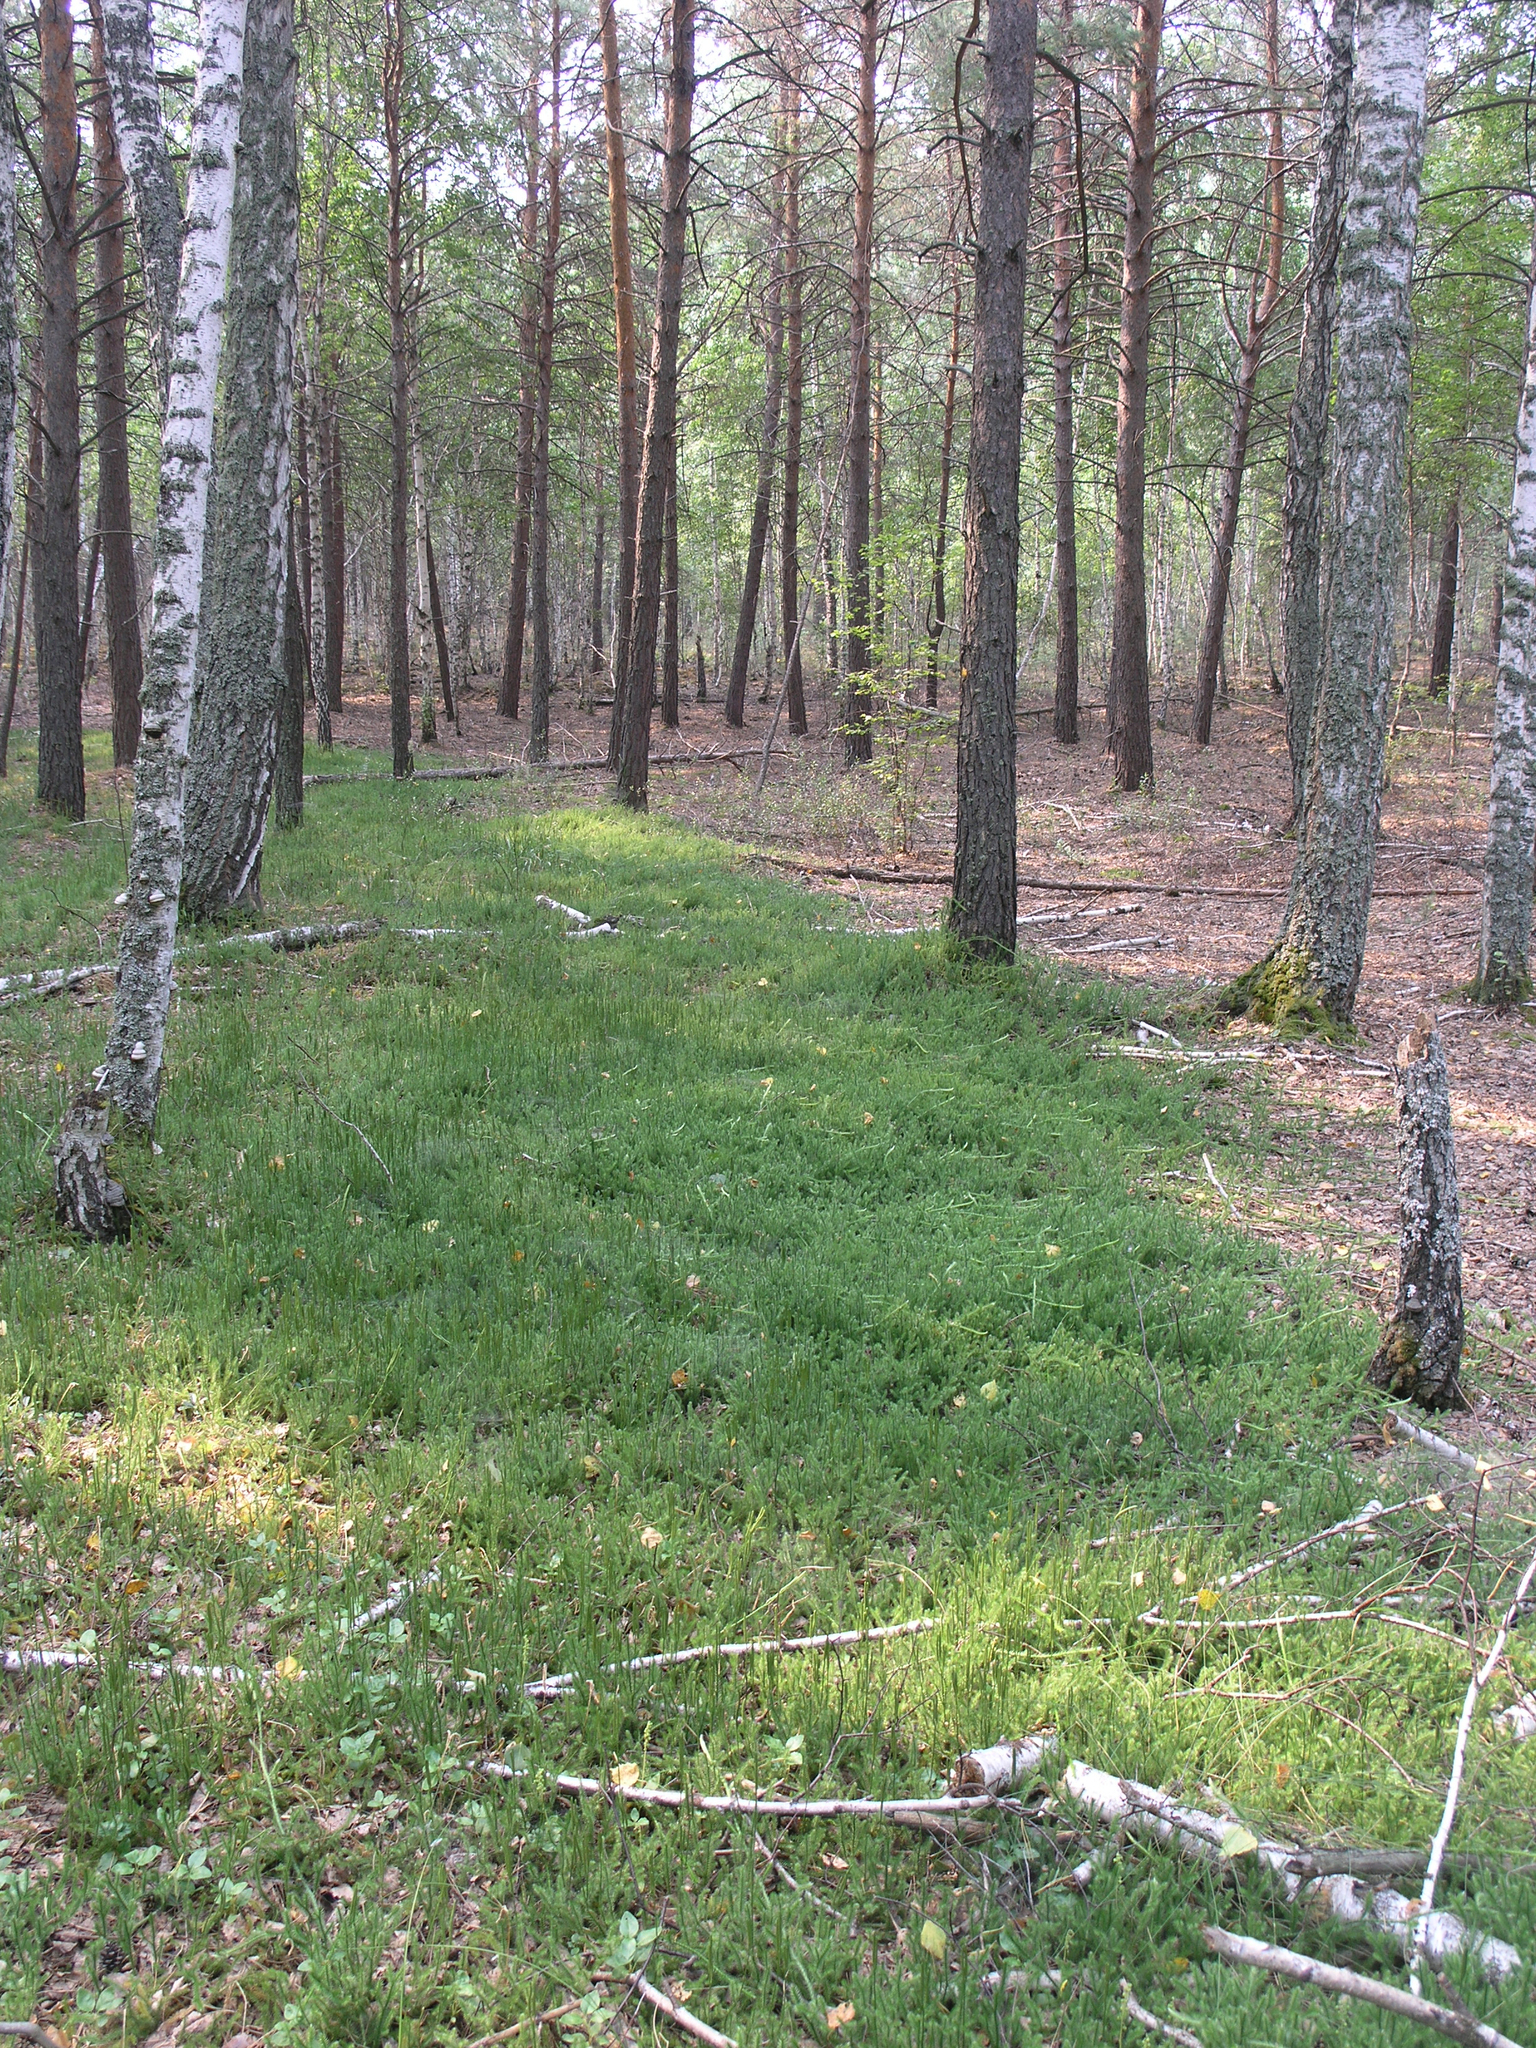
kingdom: Plantae
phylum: Tracheophyta
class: Lycopodiopsida
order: Lycopodiales
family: Lycopodiaceae
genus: Lycopodium
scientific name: Lycopodium clavatum
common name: Stag's-horn clubmoss
